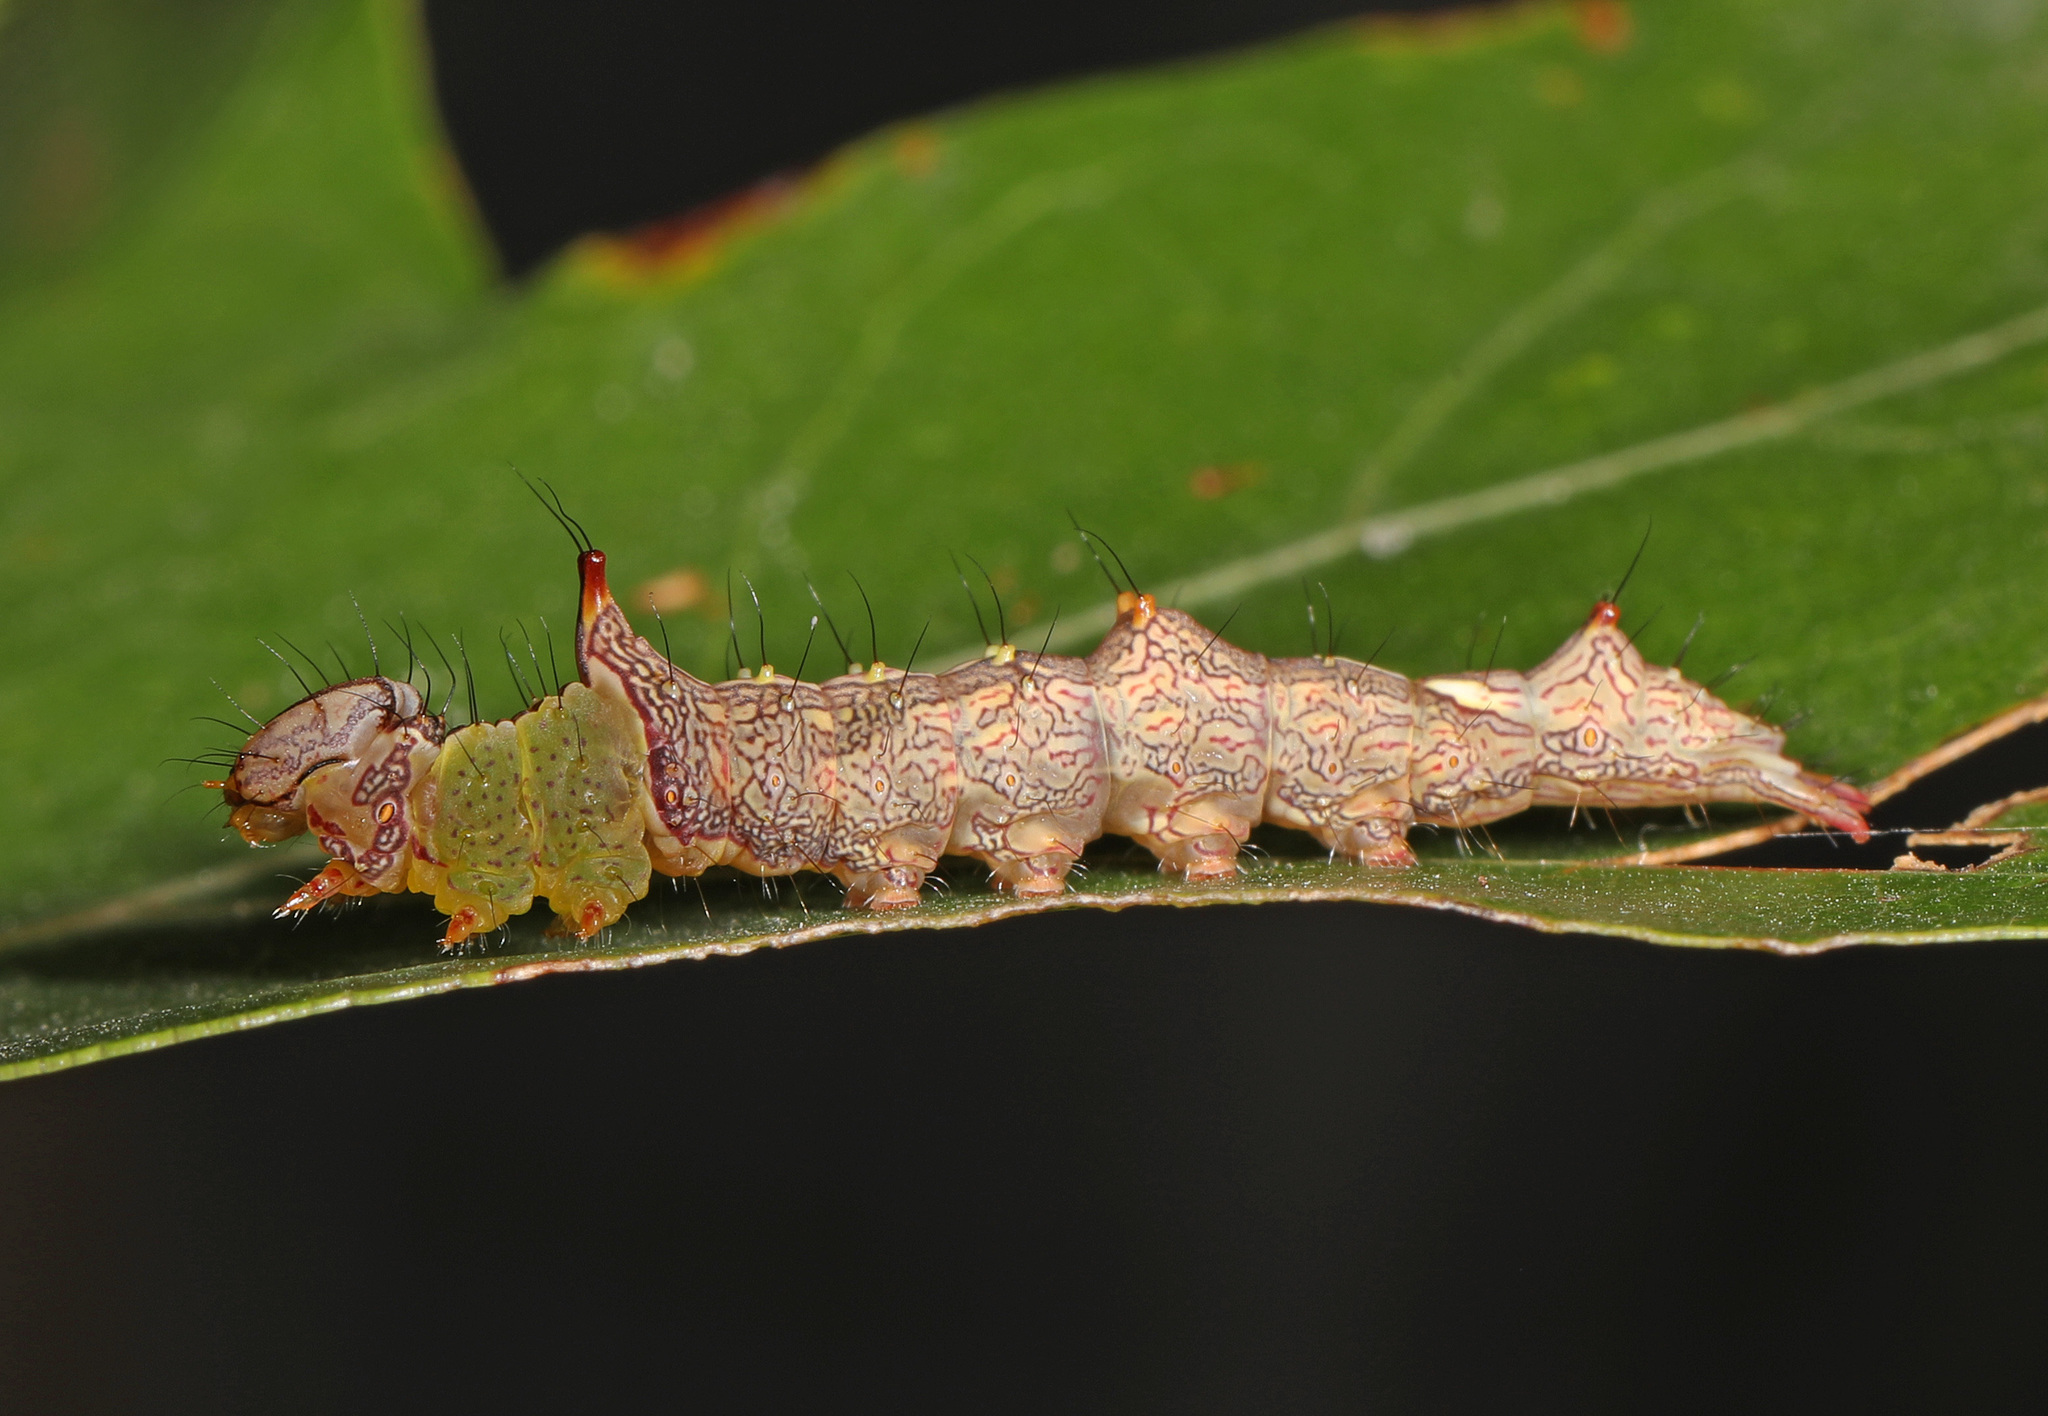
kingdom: Animalia
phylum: Arthropoda
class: Insecta
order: Lepidoptera
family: Notodontidae
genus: Schizura
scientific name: Schizura ipomaeae
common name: Morning-glory prominent
